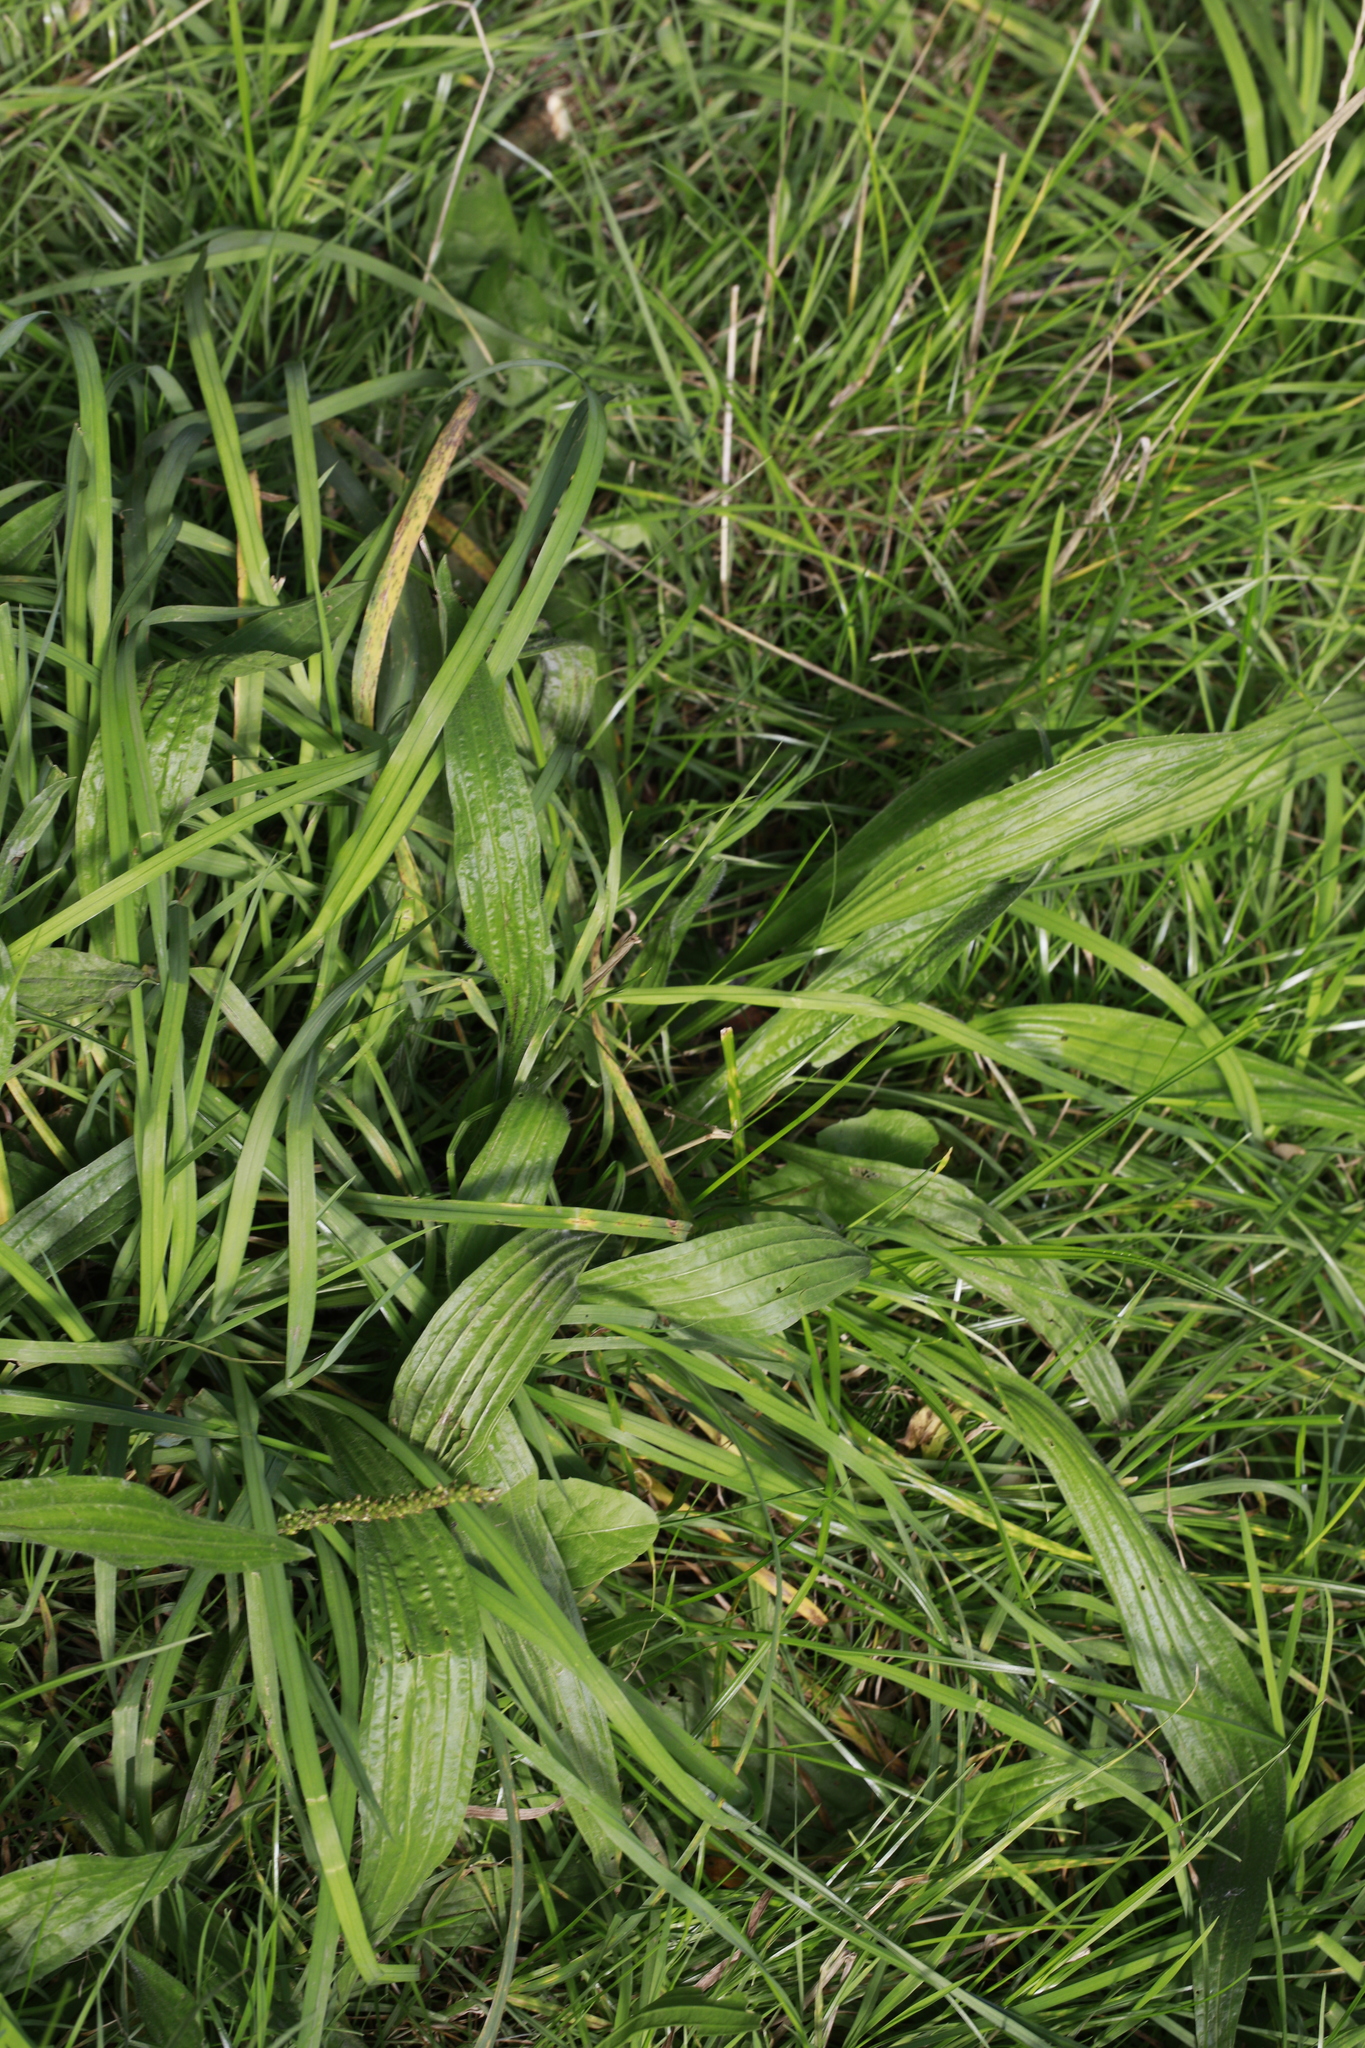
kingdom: Plantae
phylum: Tracheophyta
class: Magnoliopsida
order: Lamiales
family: Plantaginaceae
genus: Plantago
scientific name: Plantago lanceolata
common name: Ribwort plantain
